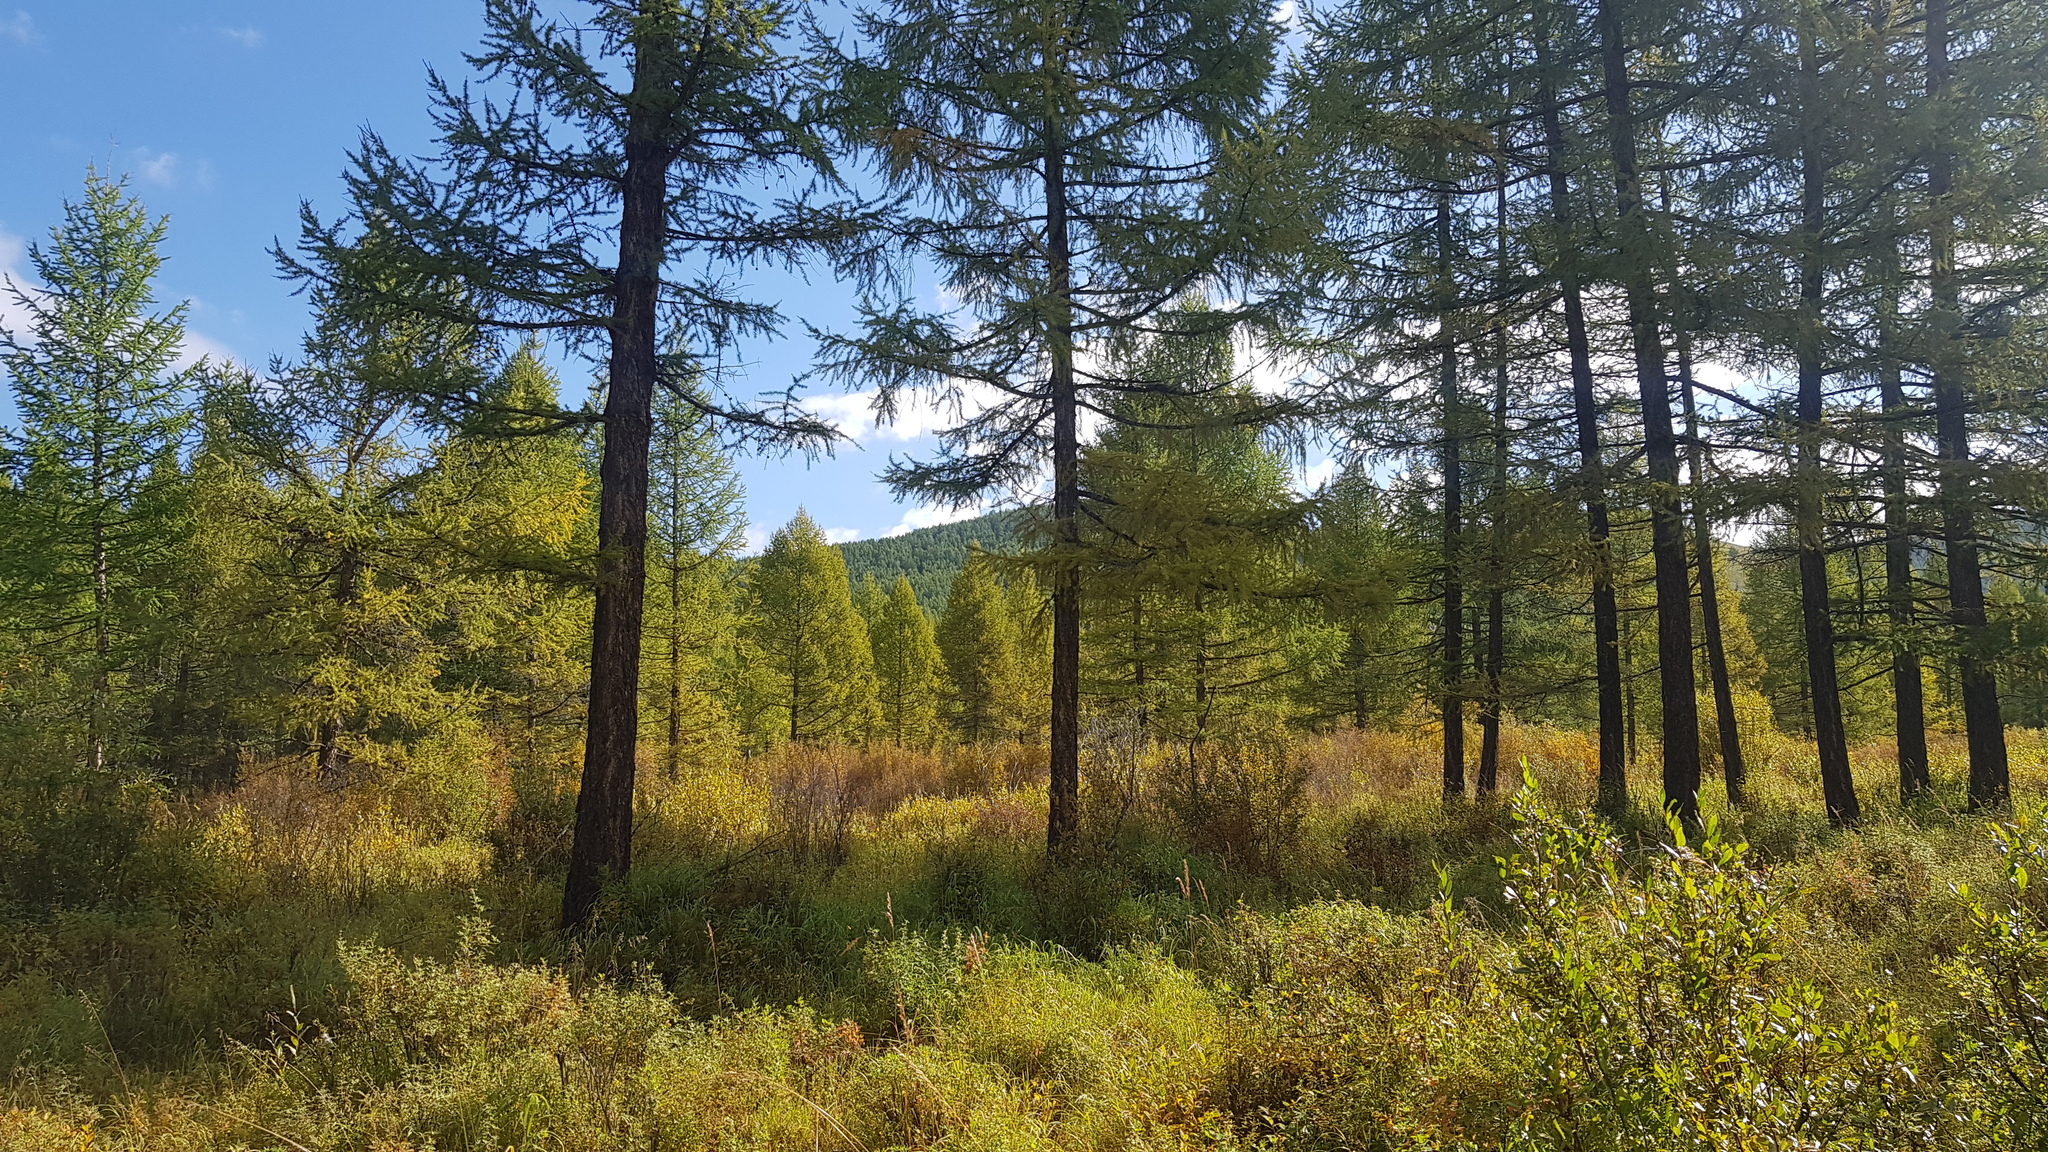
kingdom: Plantae
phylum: Tracheophyta
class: Pinopsida
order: Pinales
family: Pinaceae
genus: Larix
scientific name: Larix sibirica
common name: Siberian larch
